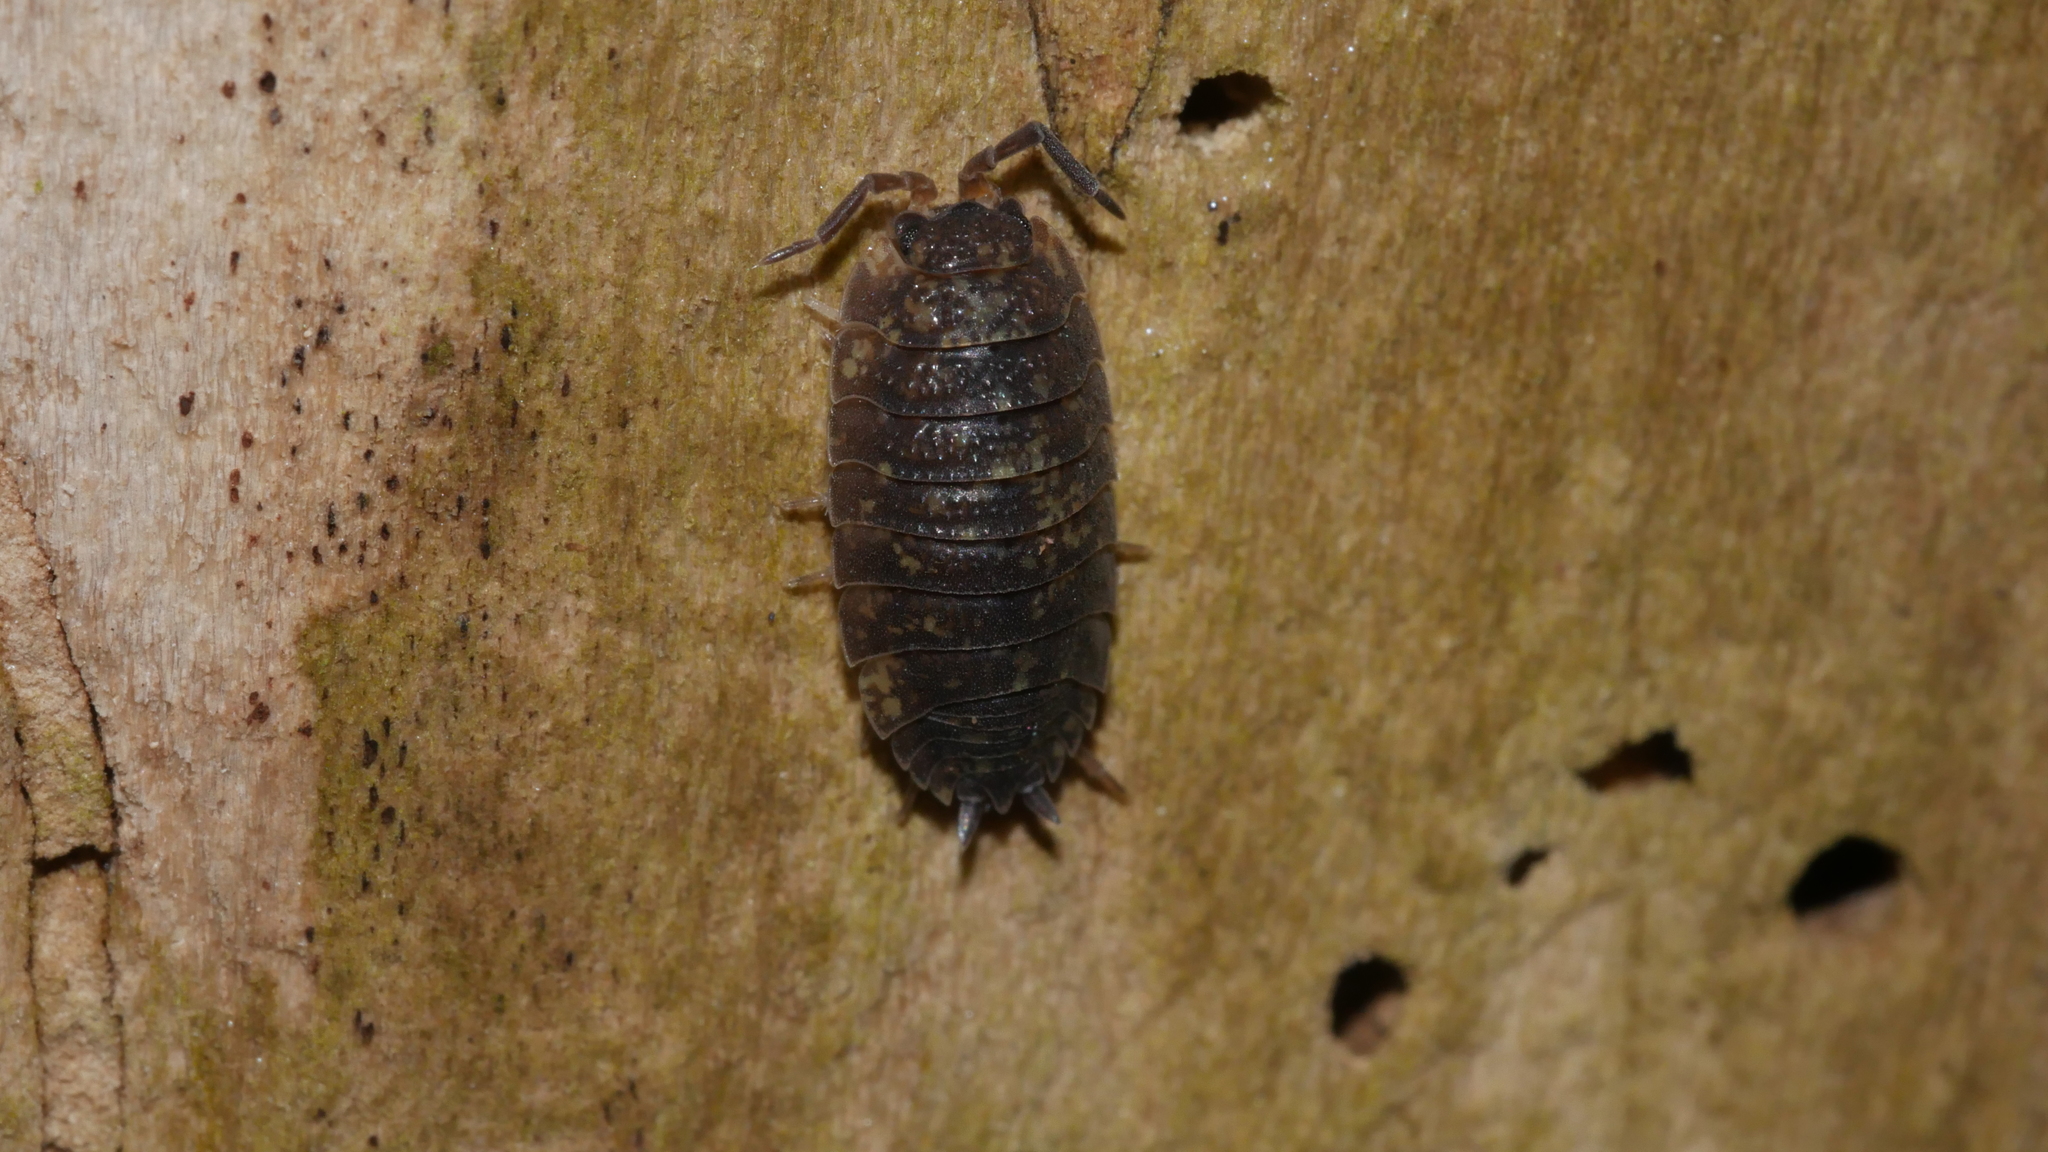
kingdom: Animalia
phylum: Arthropoda
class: Malacostraca
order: Isopoda
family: Porcellionidae
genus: Porcellio
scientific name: Porcellio scaber
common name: Common rough woodlouse
